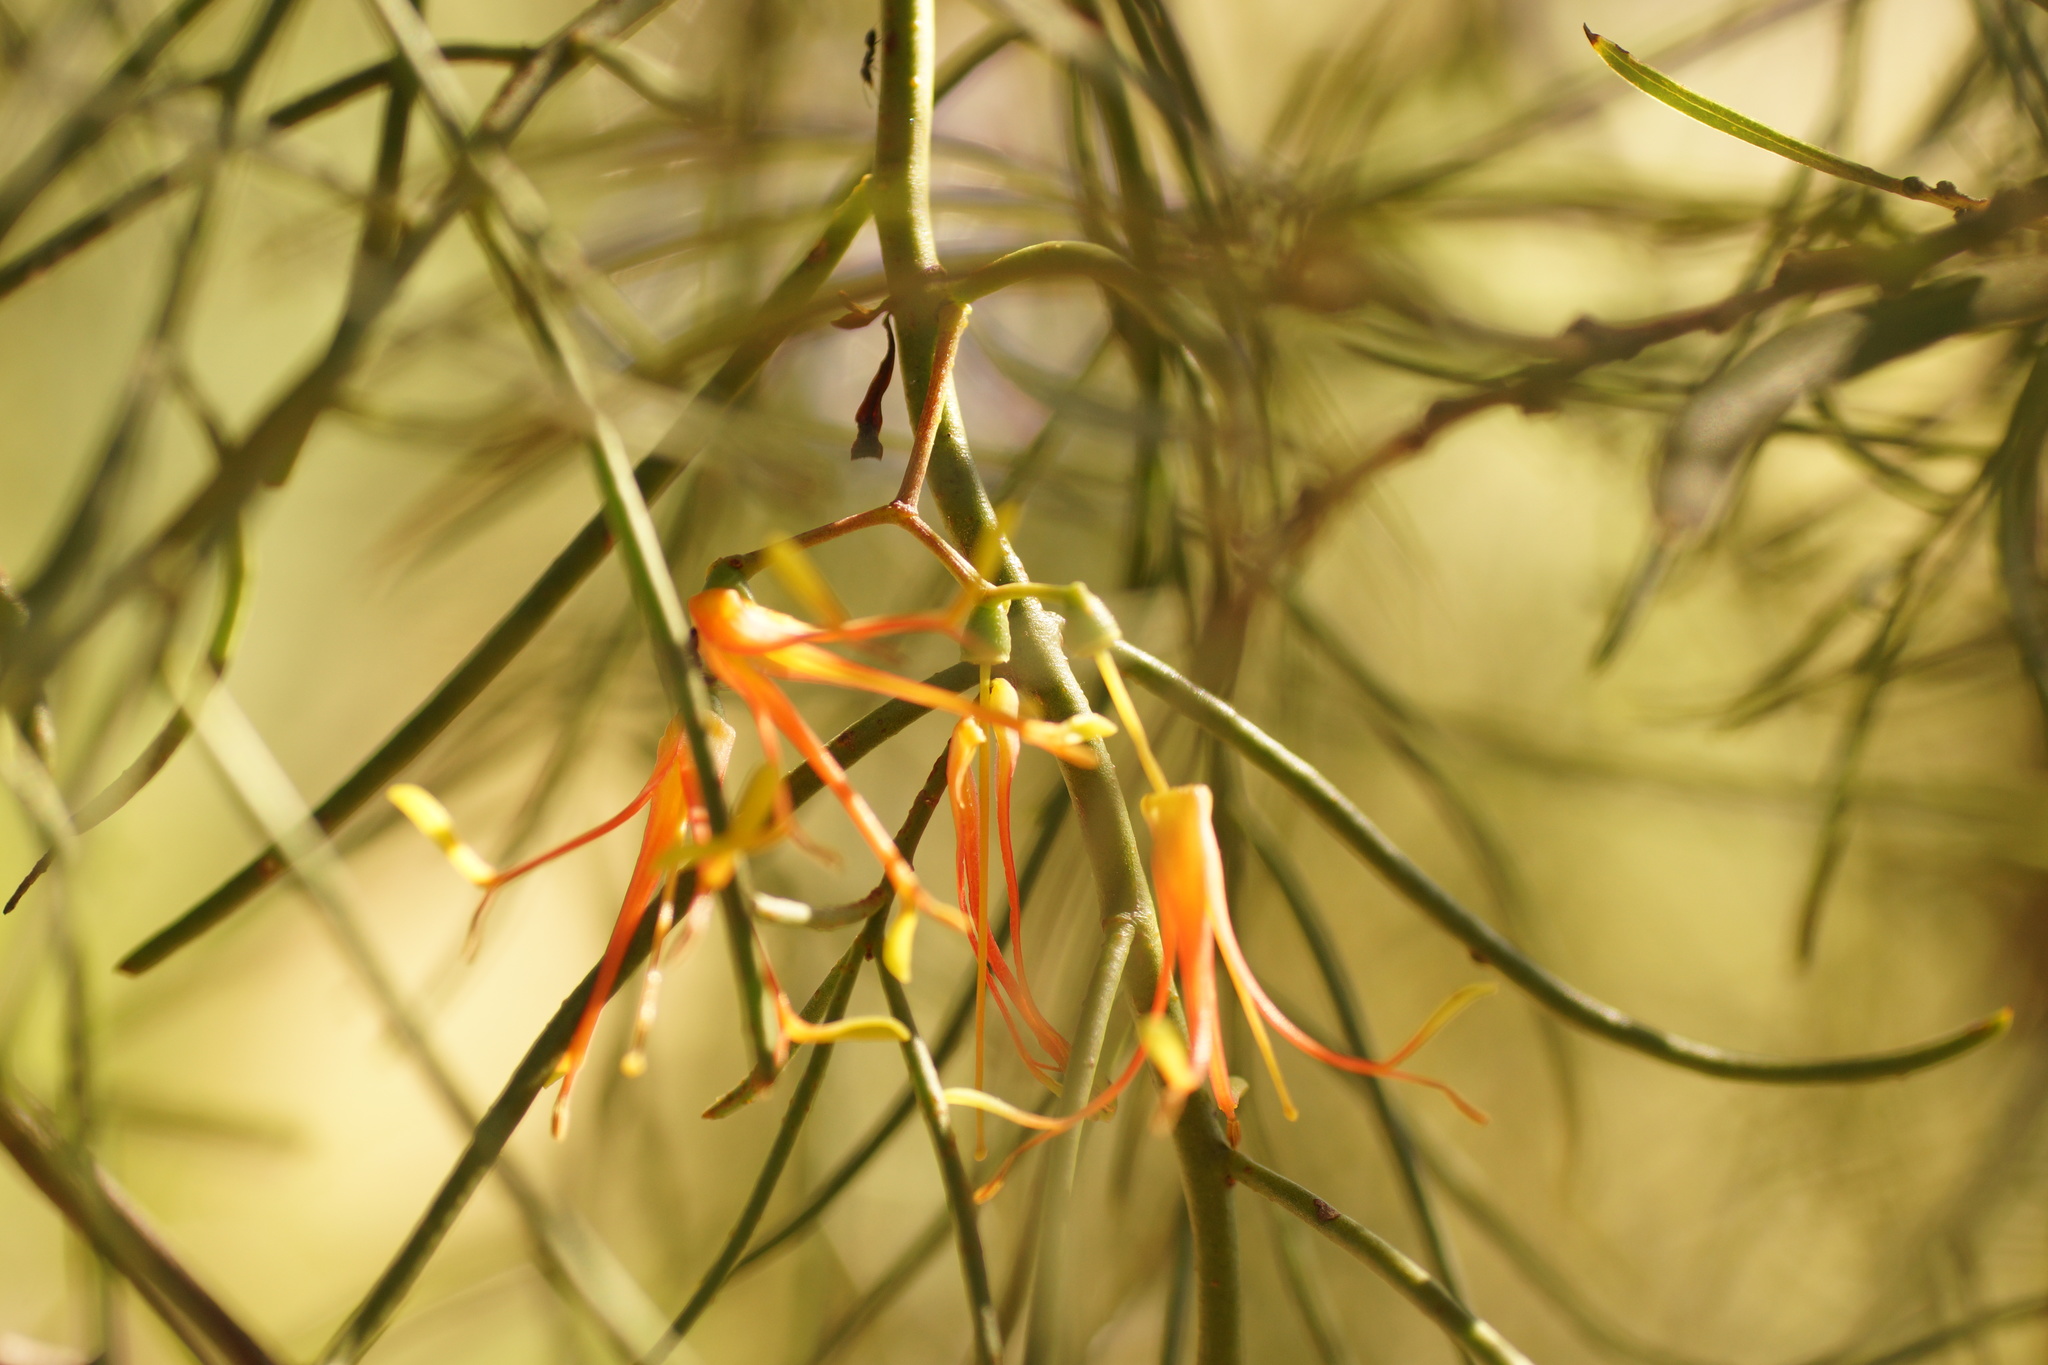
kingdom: Plantae
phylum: Tracheophyta
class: Magnoliopsida
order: Santalales
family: Loranthaceae
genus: Amyema
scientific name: Amyema preissii
